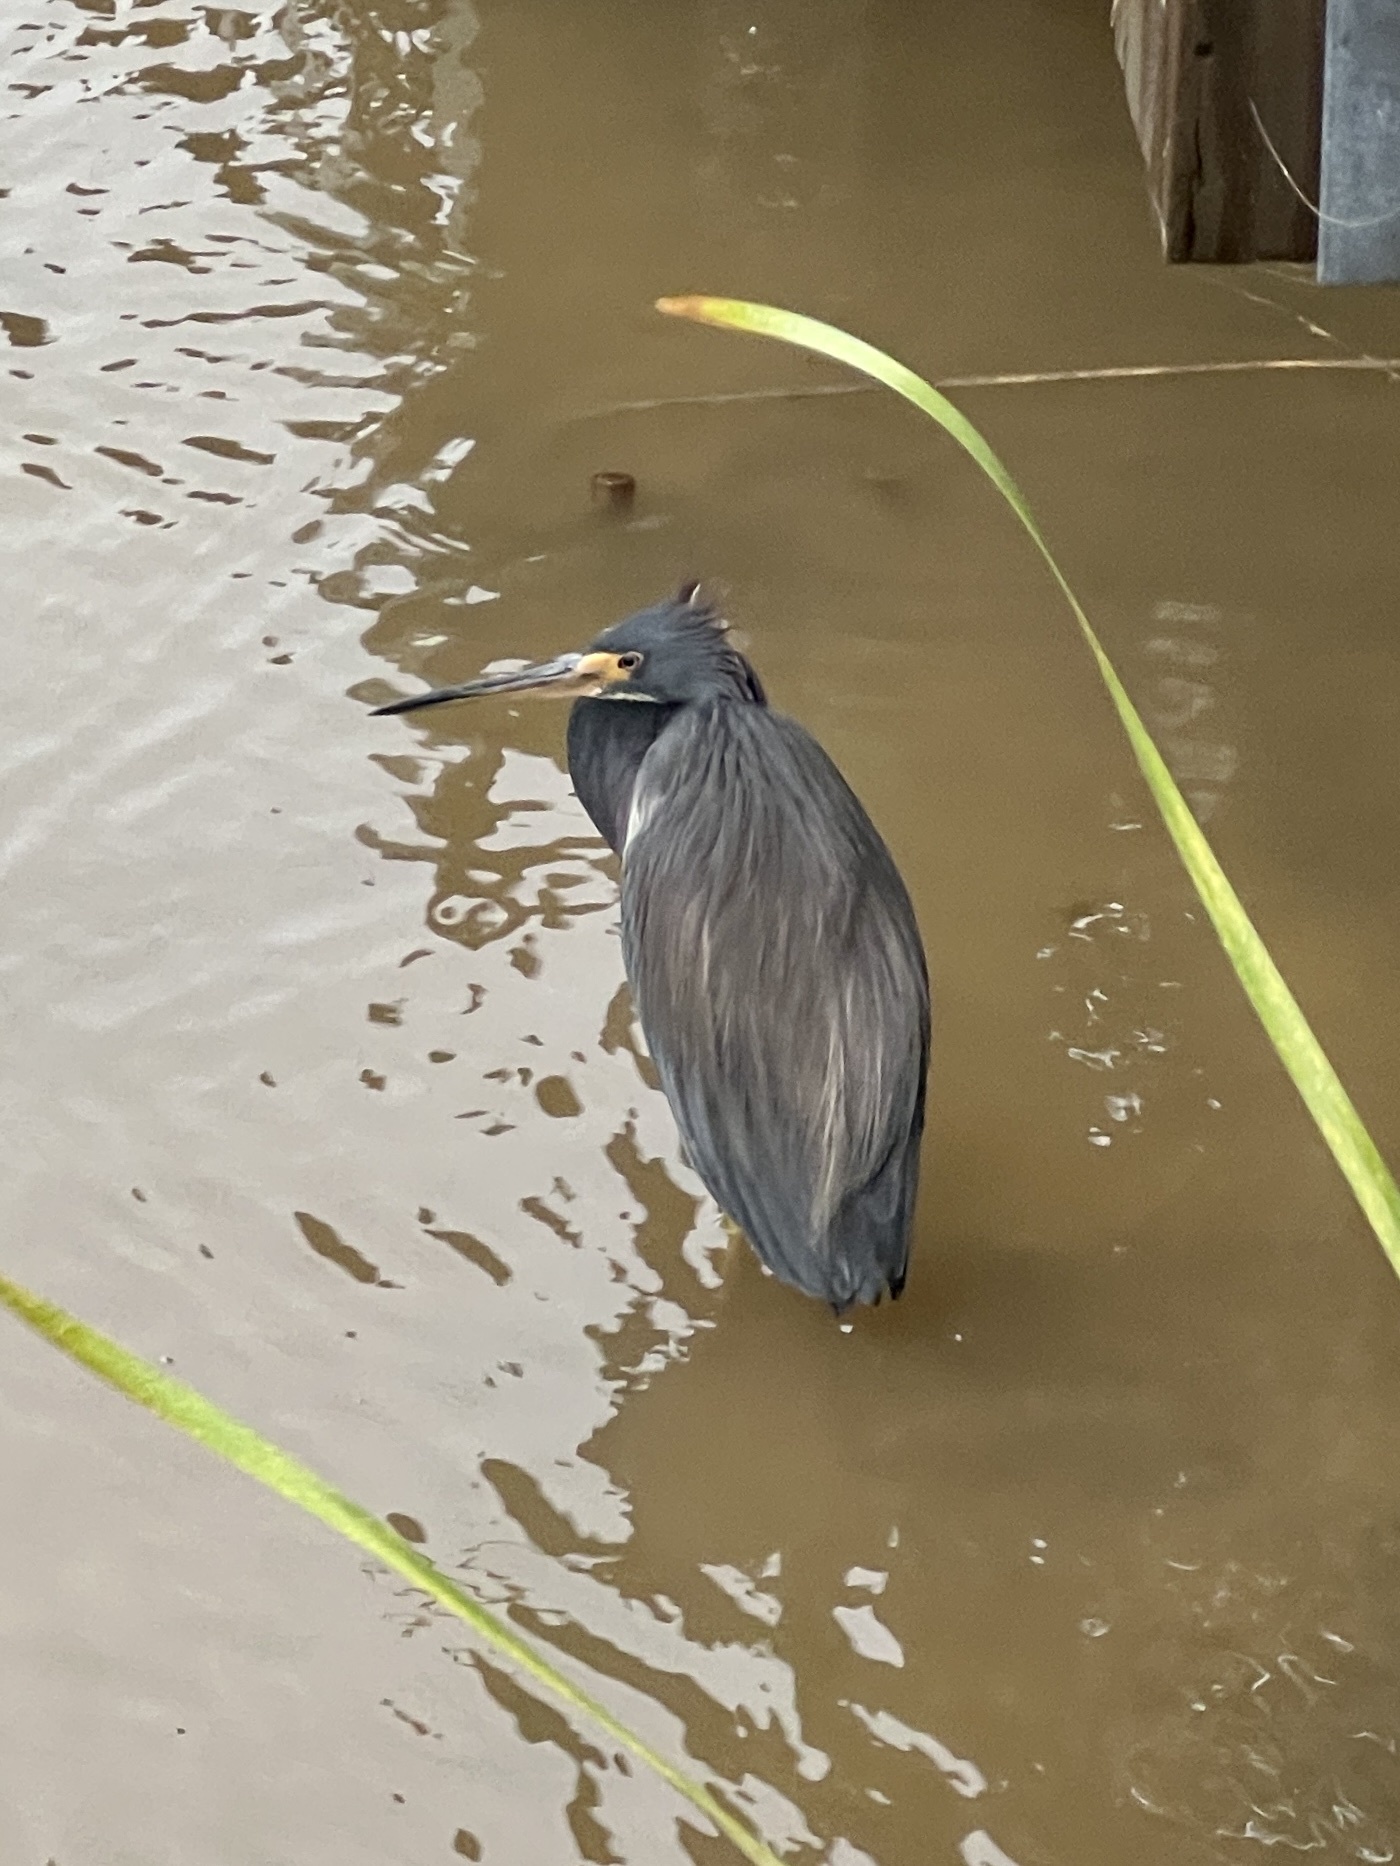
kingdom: Animalia
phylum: Chordata
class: Aves
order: Pelecaniformes
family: Ardeidae
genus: Egretta
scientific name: Egretta tricolor
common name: Tricolored heron
